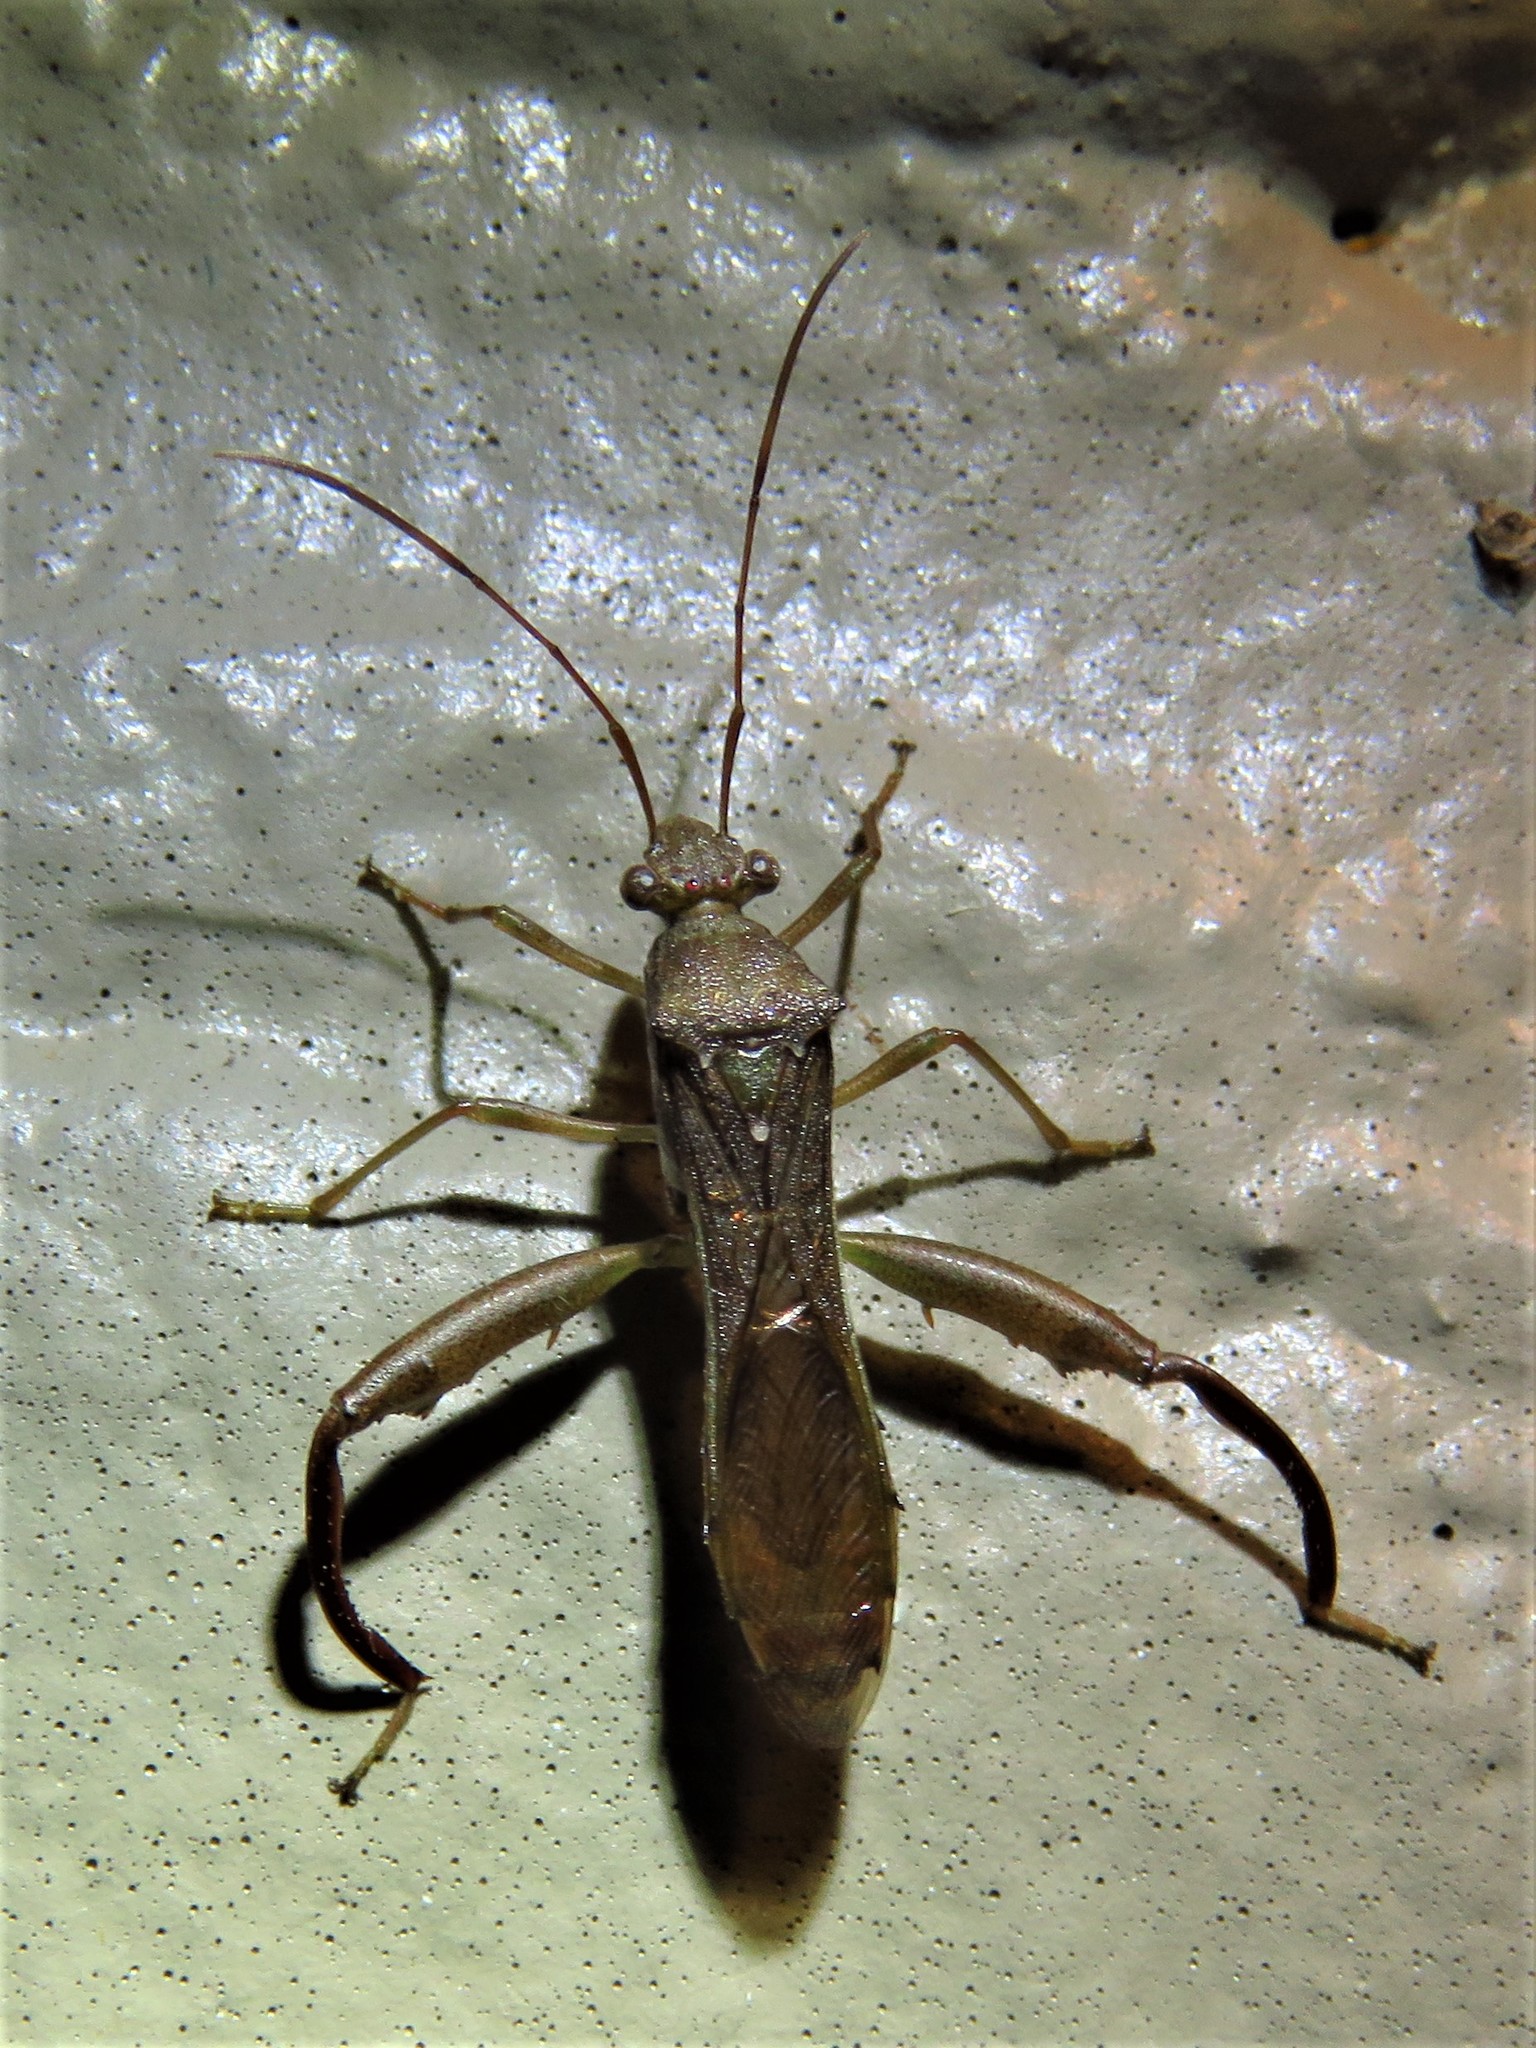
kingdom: Animalia
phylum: Arthropoda
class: Insecta
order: Hemiptera
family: Alydidae
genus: Hyalymenus
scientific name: Hyalymenus tarsatus
